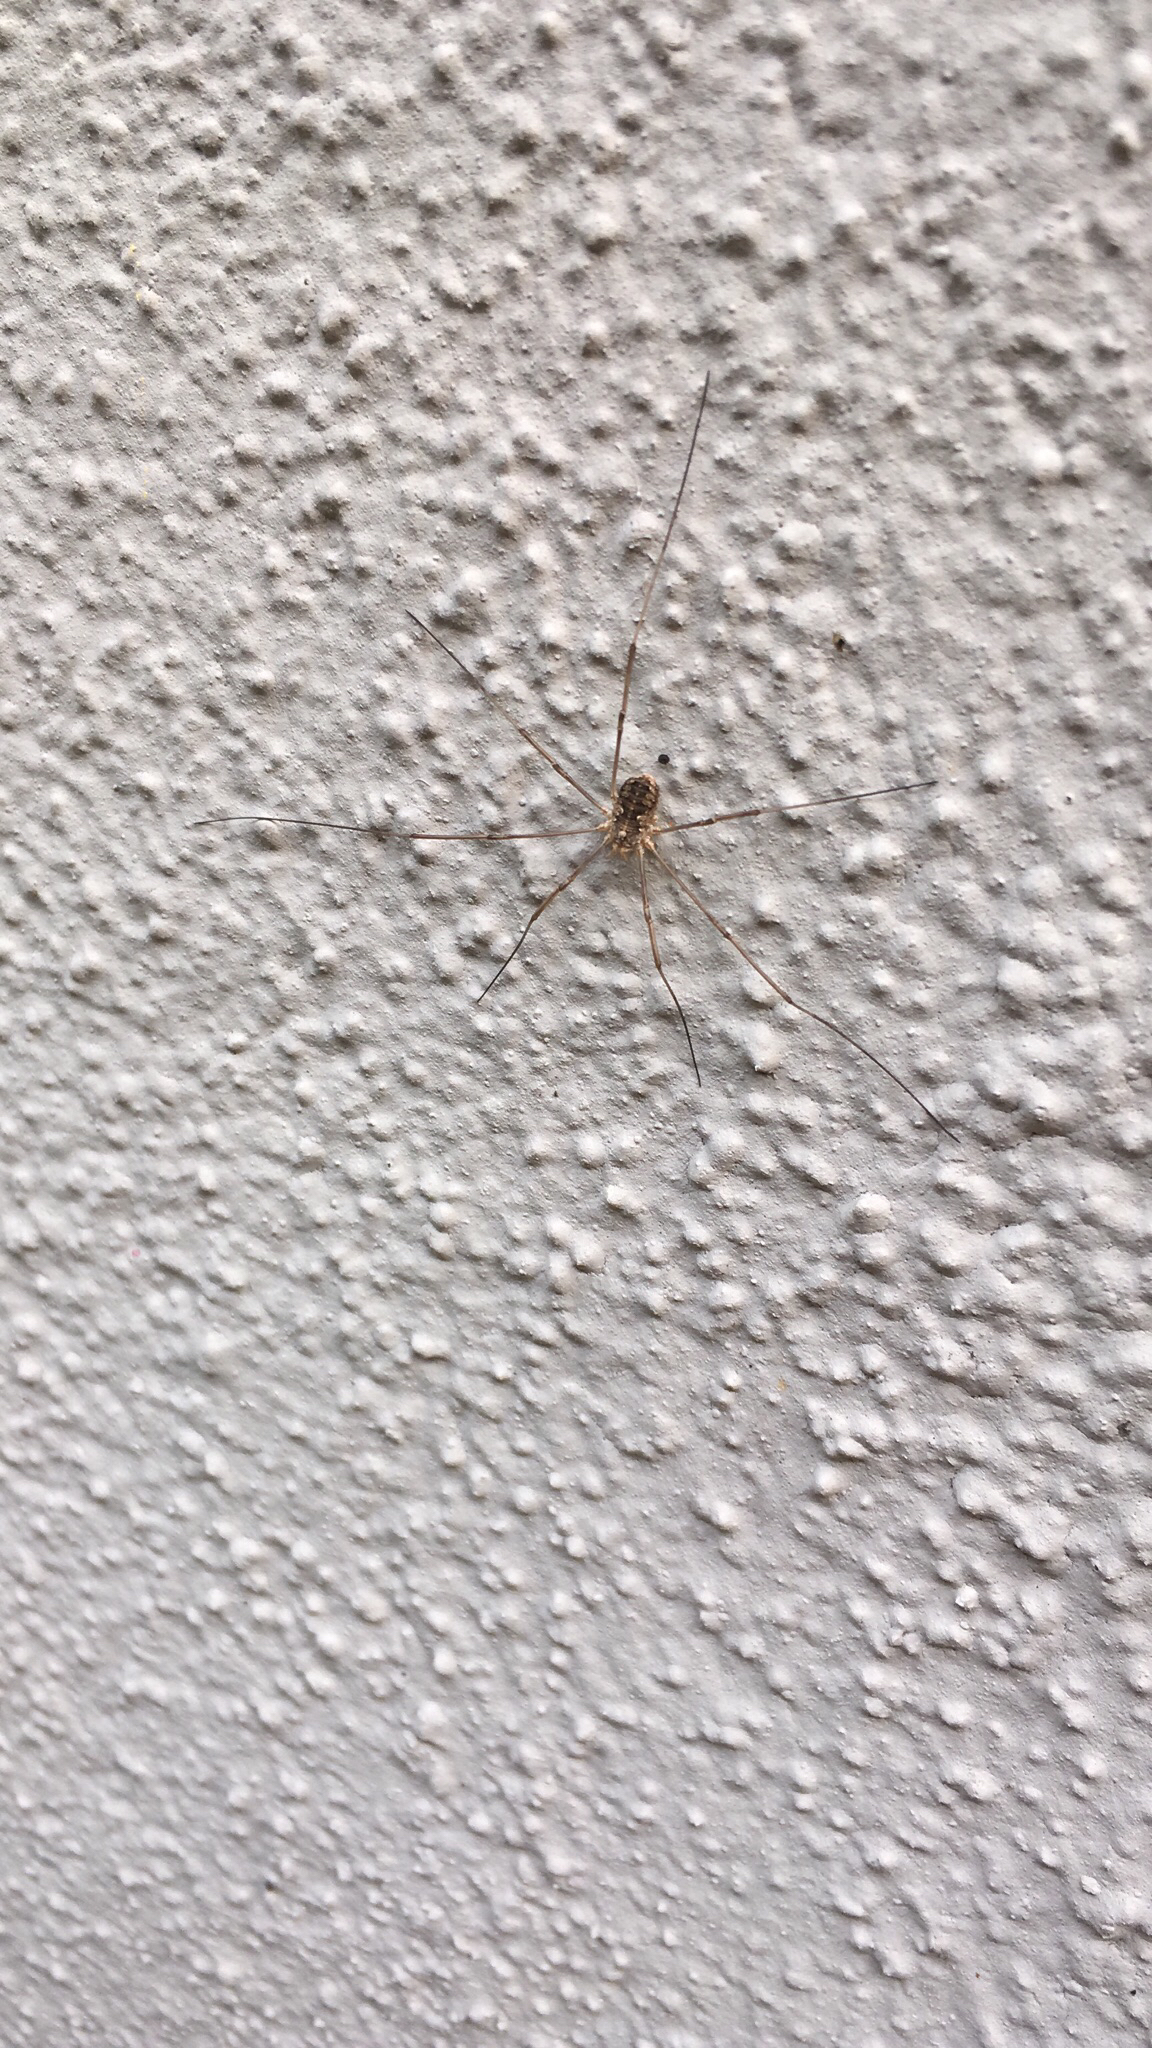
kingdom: Animalia
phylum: Arthropoda
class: Arachnida
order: Opiliones
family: Phalangiidae
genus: Phalangium
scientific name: Phalangium opilio
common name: Daddy longleg
